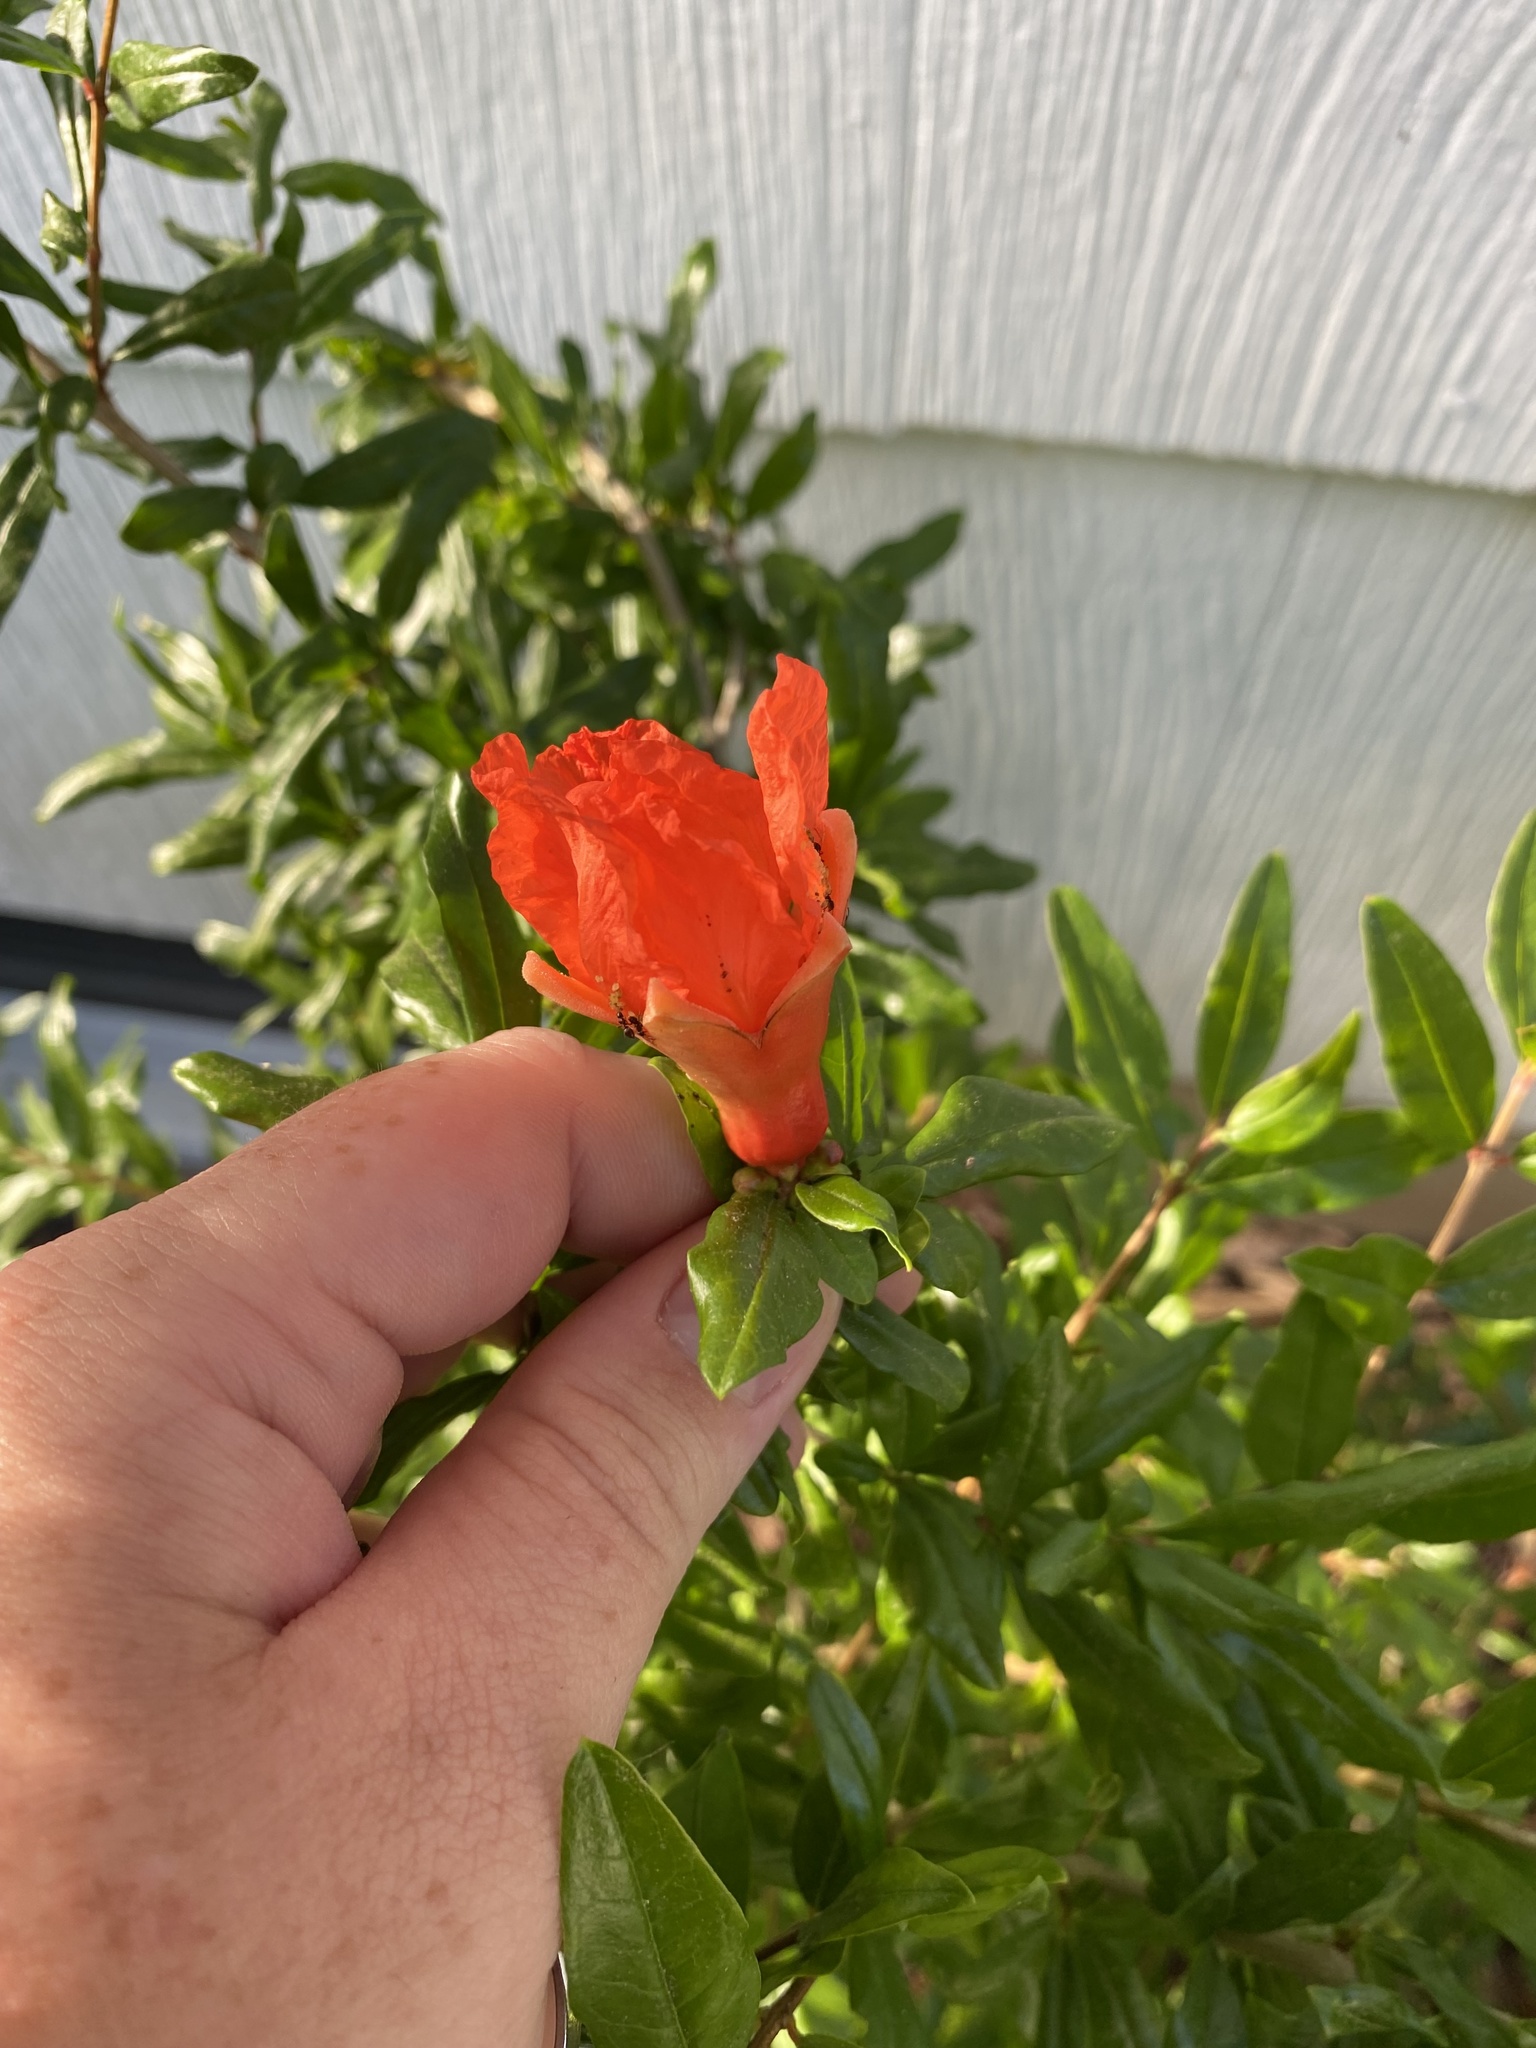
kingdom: Plantae
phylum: Tracheophyta
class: Magnoliopsida
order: Myrtales
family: Lythraceae
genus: Punica
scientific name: Punica granatum
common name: Pomegranate
